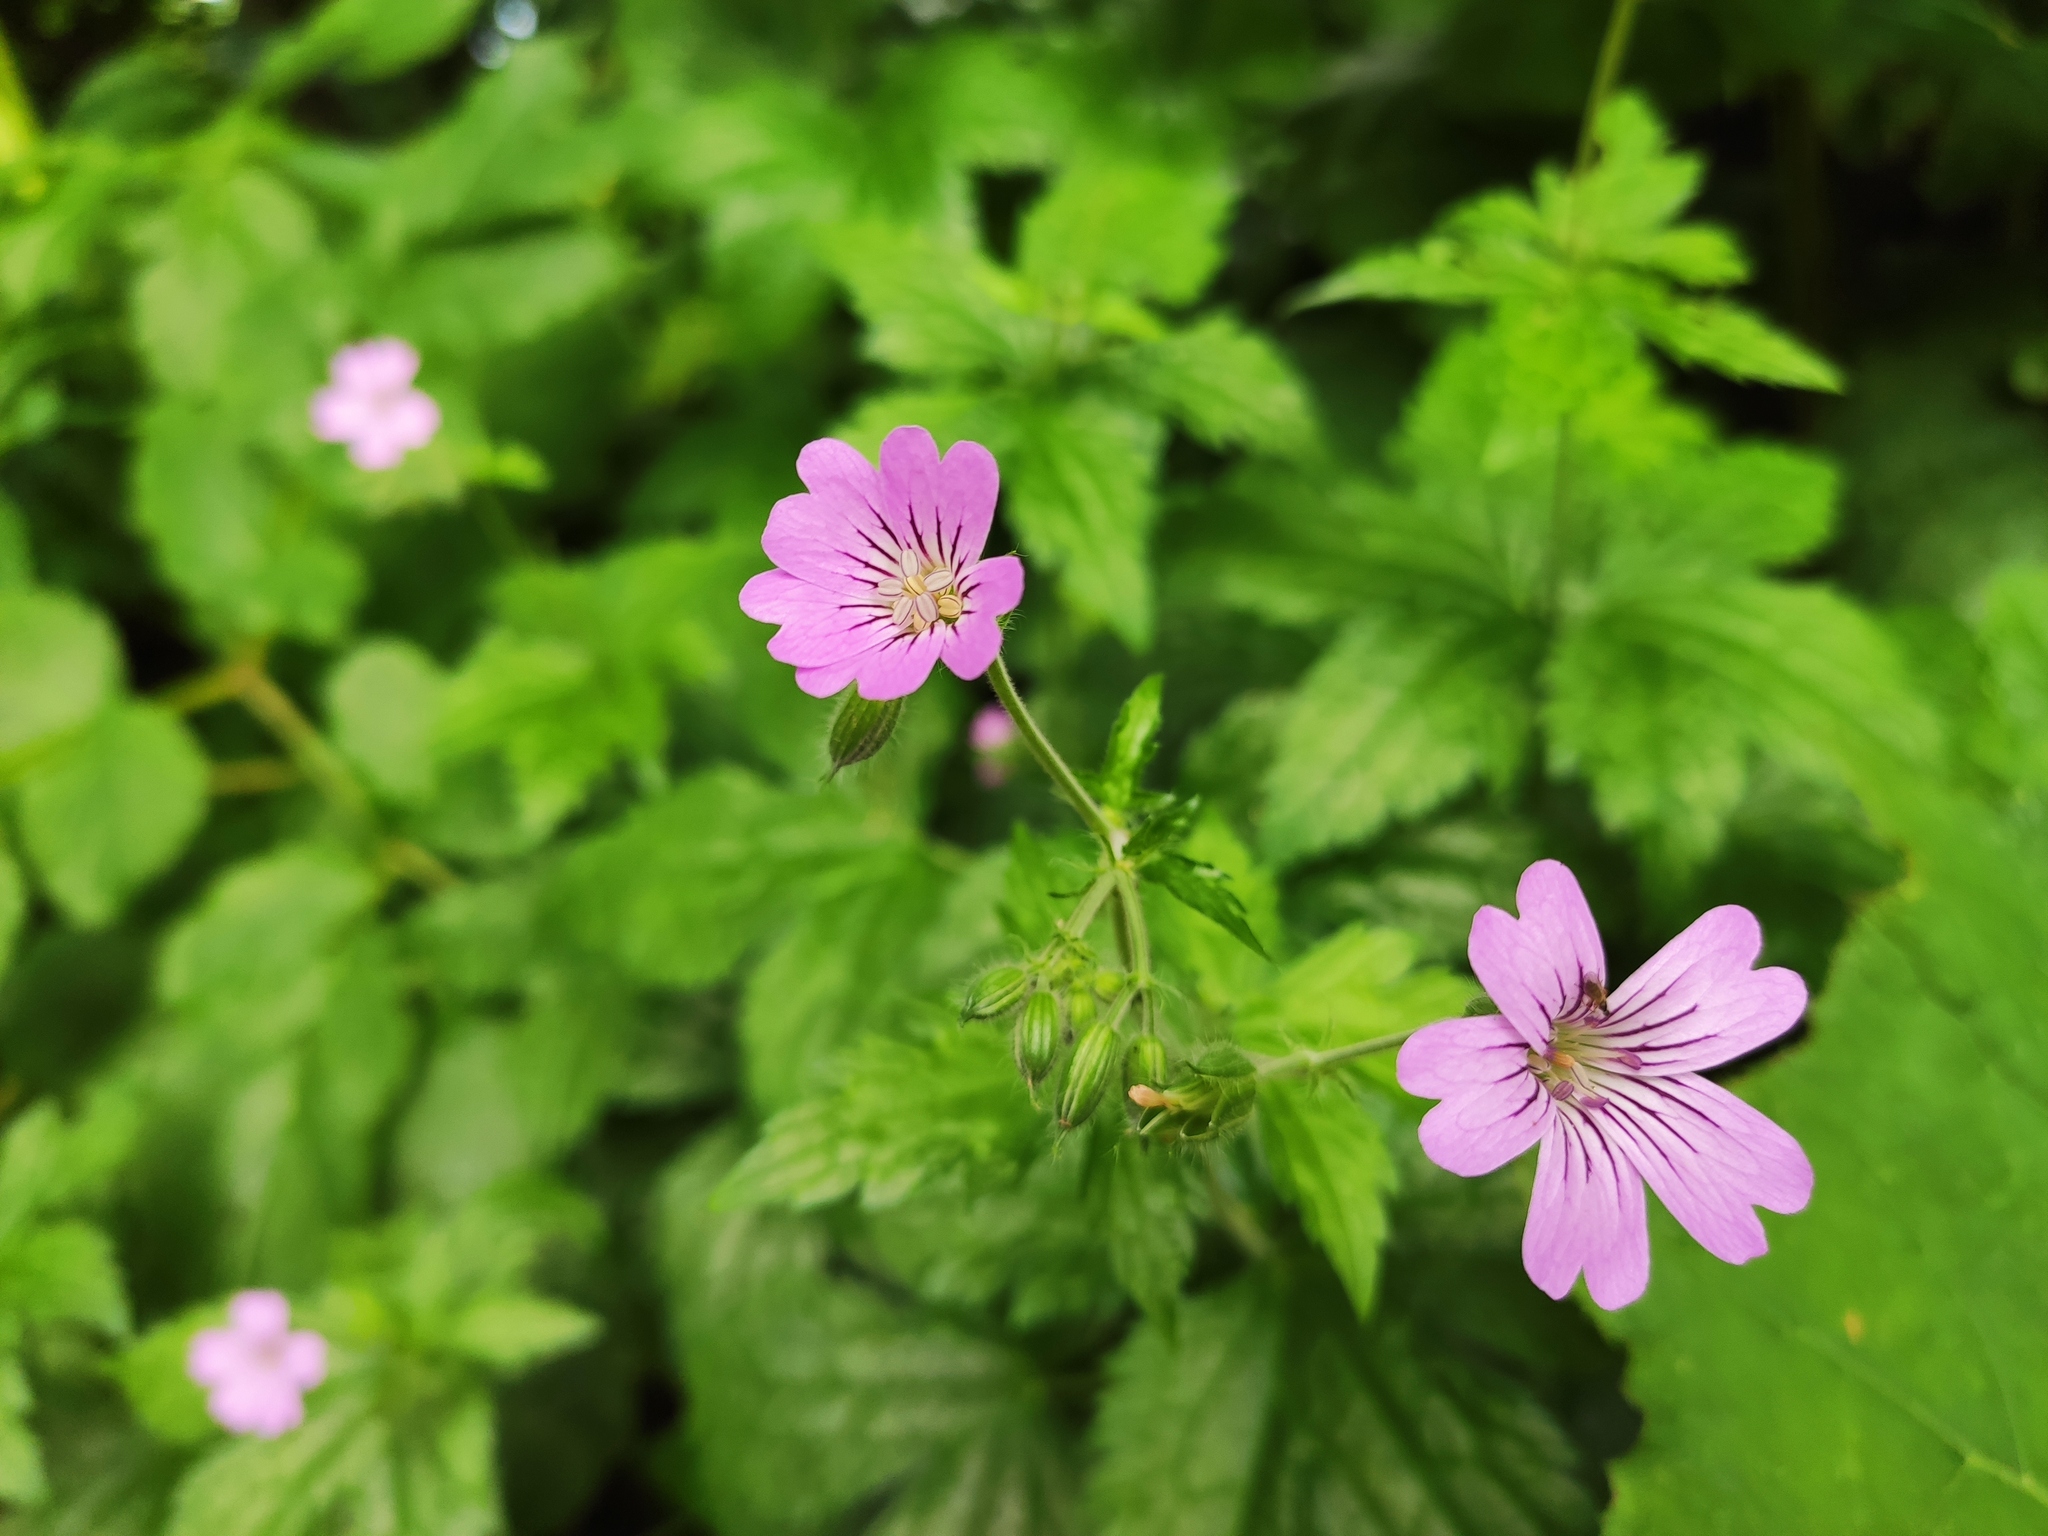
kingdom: Plantae
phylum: Tracheophyta
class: Magnoliopsida
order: Geraniales
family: Geraniaceae
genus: Geranium
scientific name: Geranium gracile
